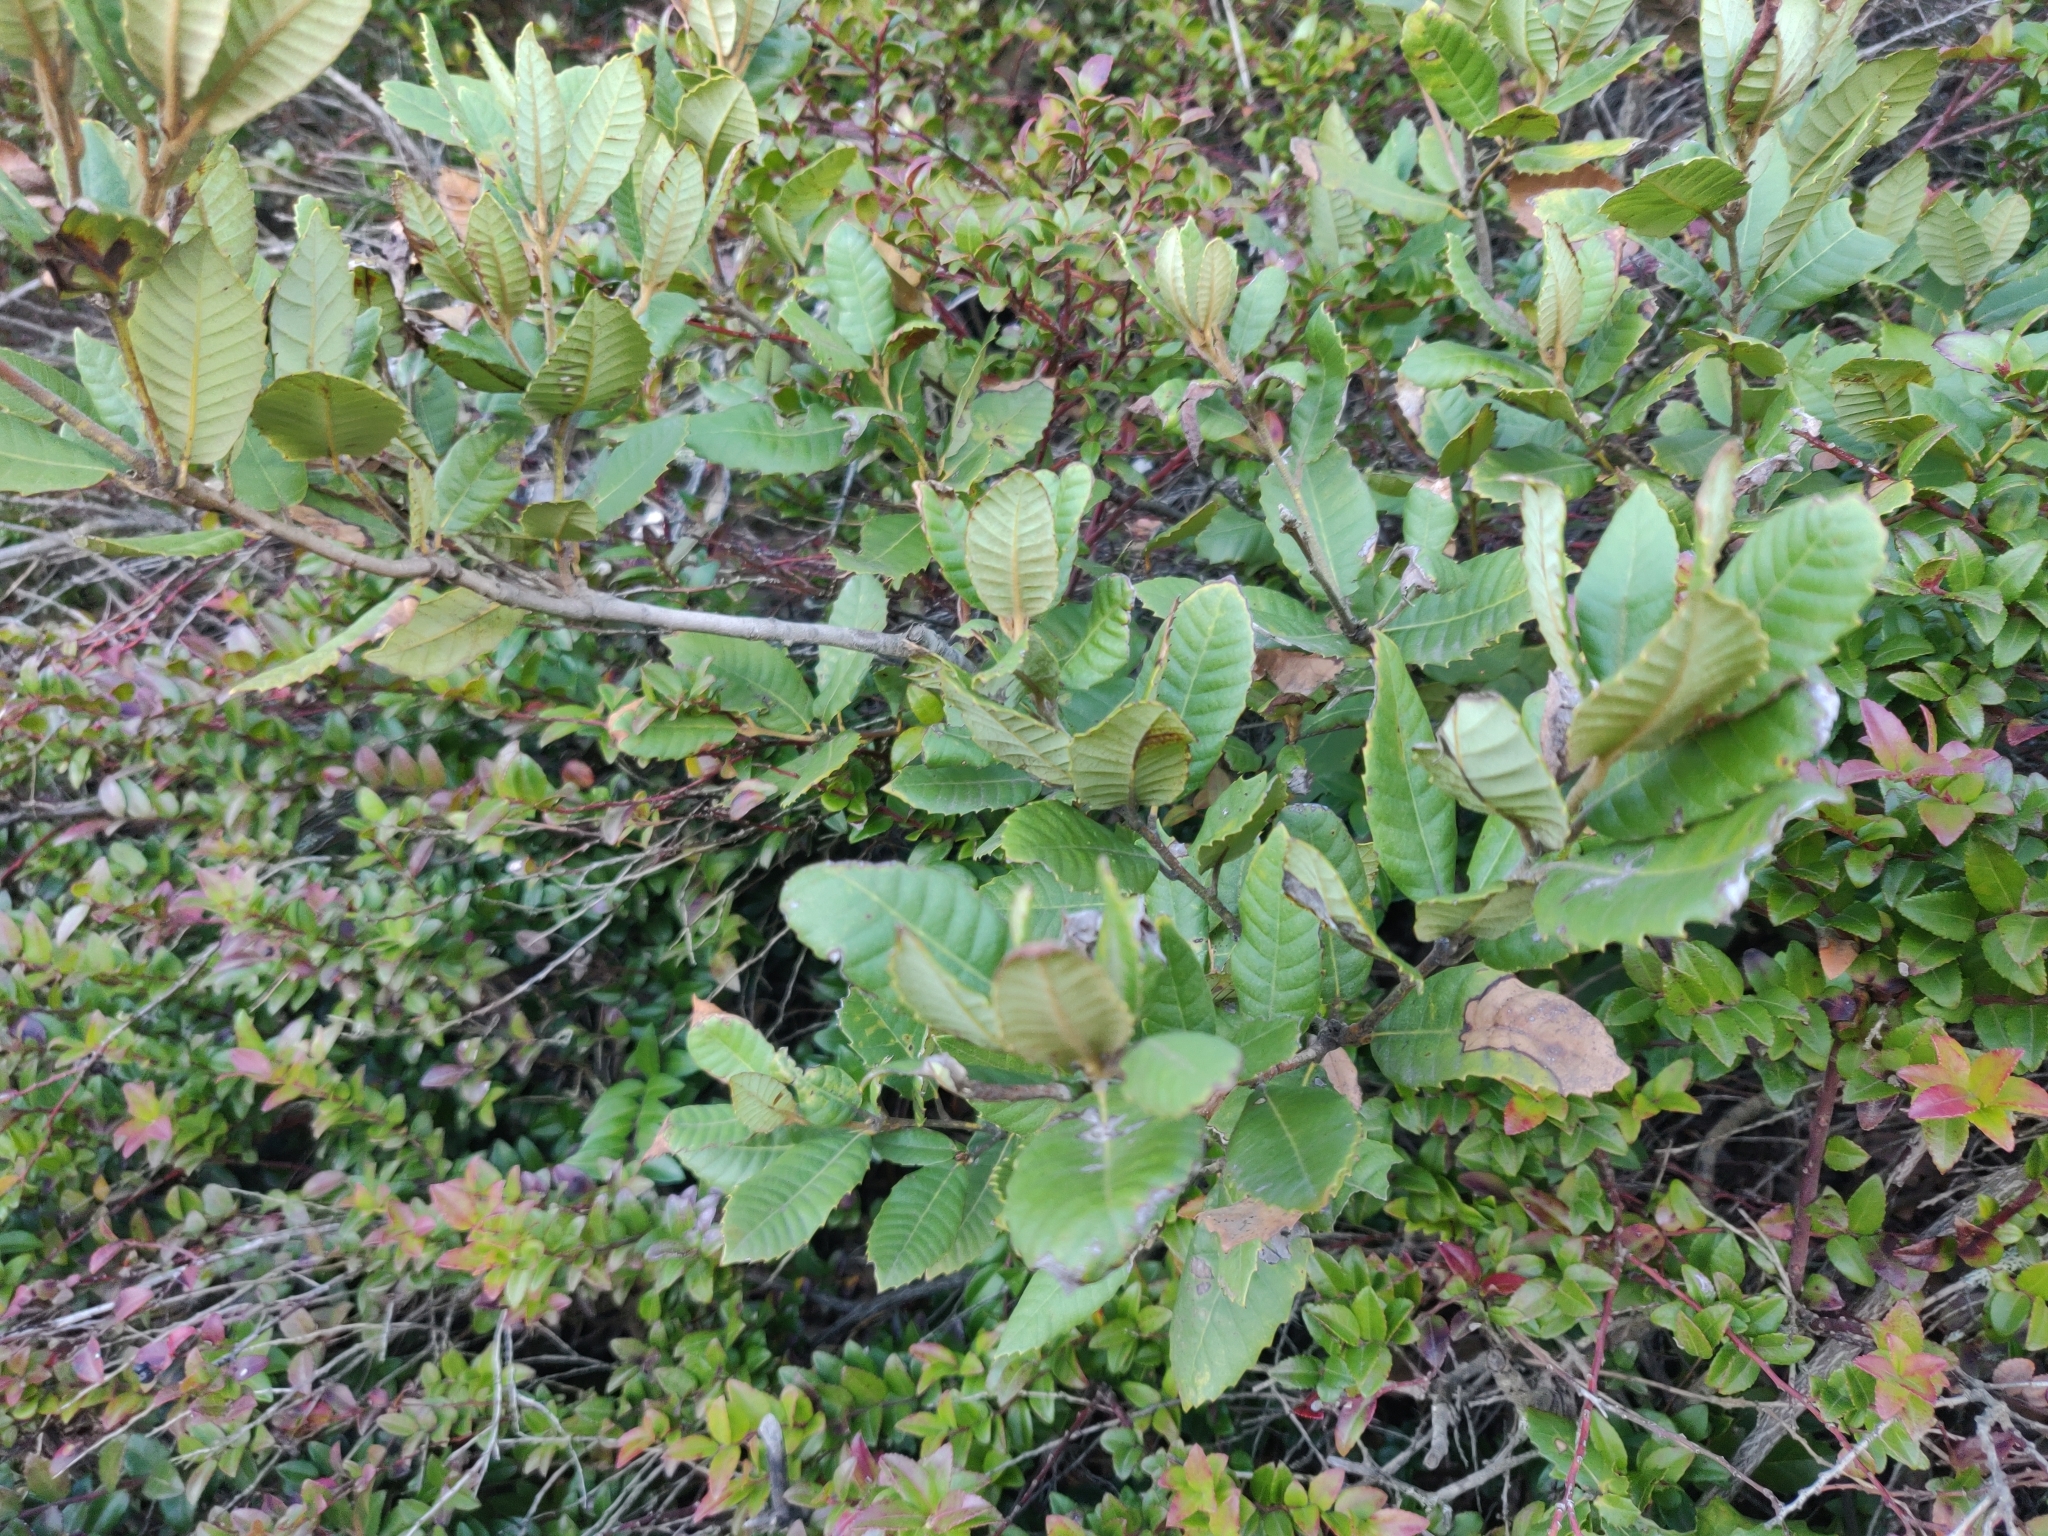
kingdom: Plantae
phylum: Tracheophyta
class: Magnoliopsida
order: Fagales
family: Fagaceae
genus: Notholithocarpus
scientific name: Notholithocarpus densiflorus
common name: Tan bark oak
